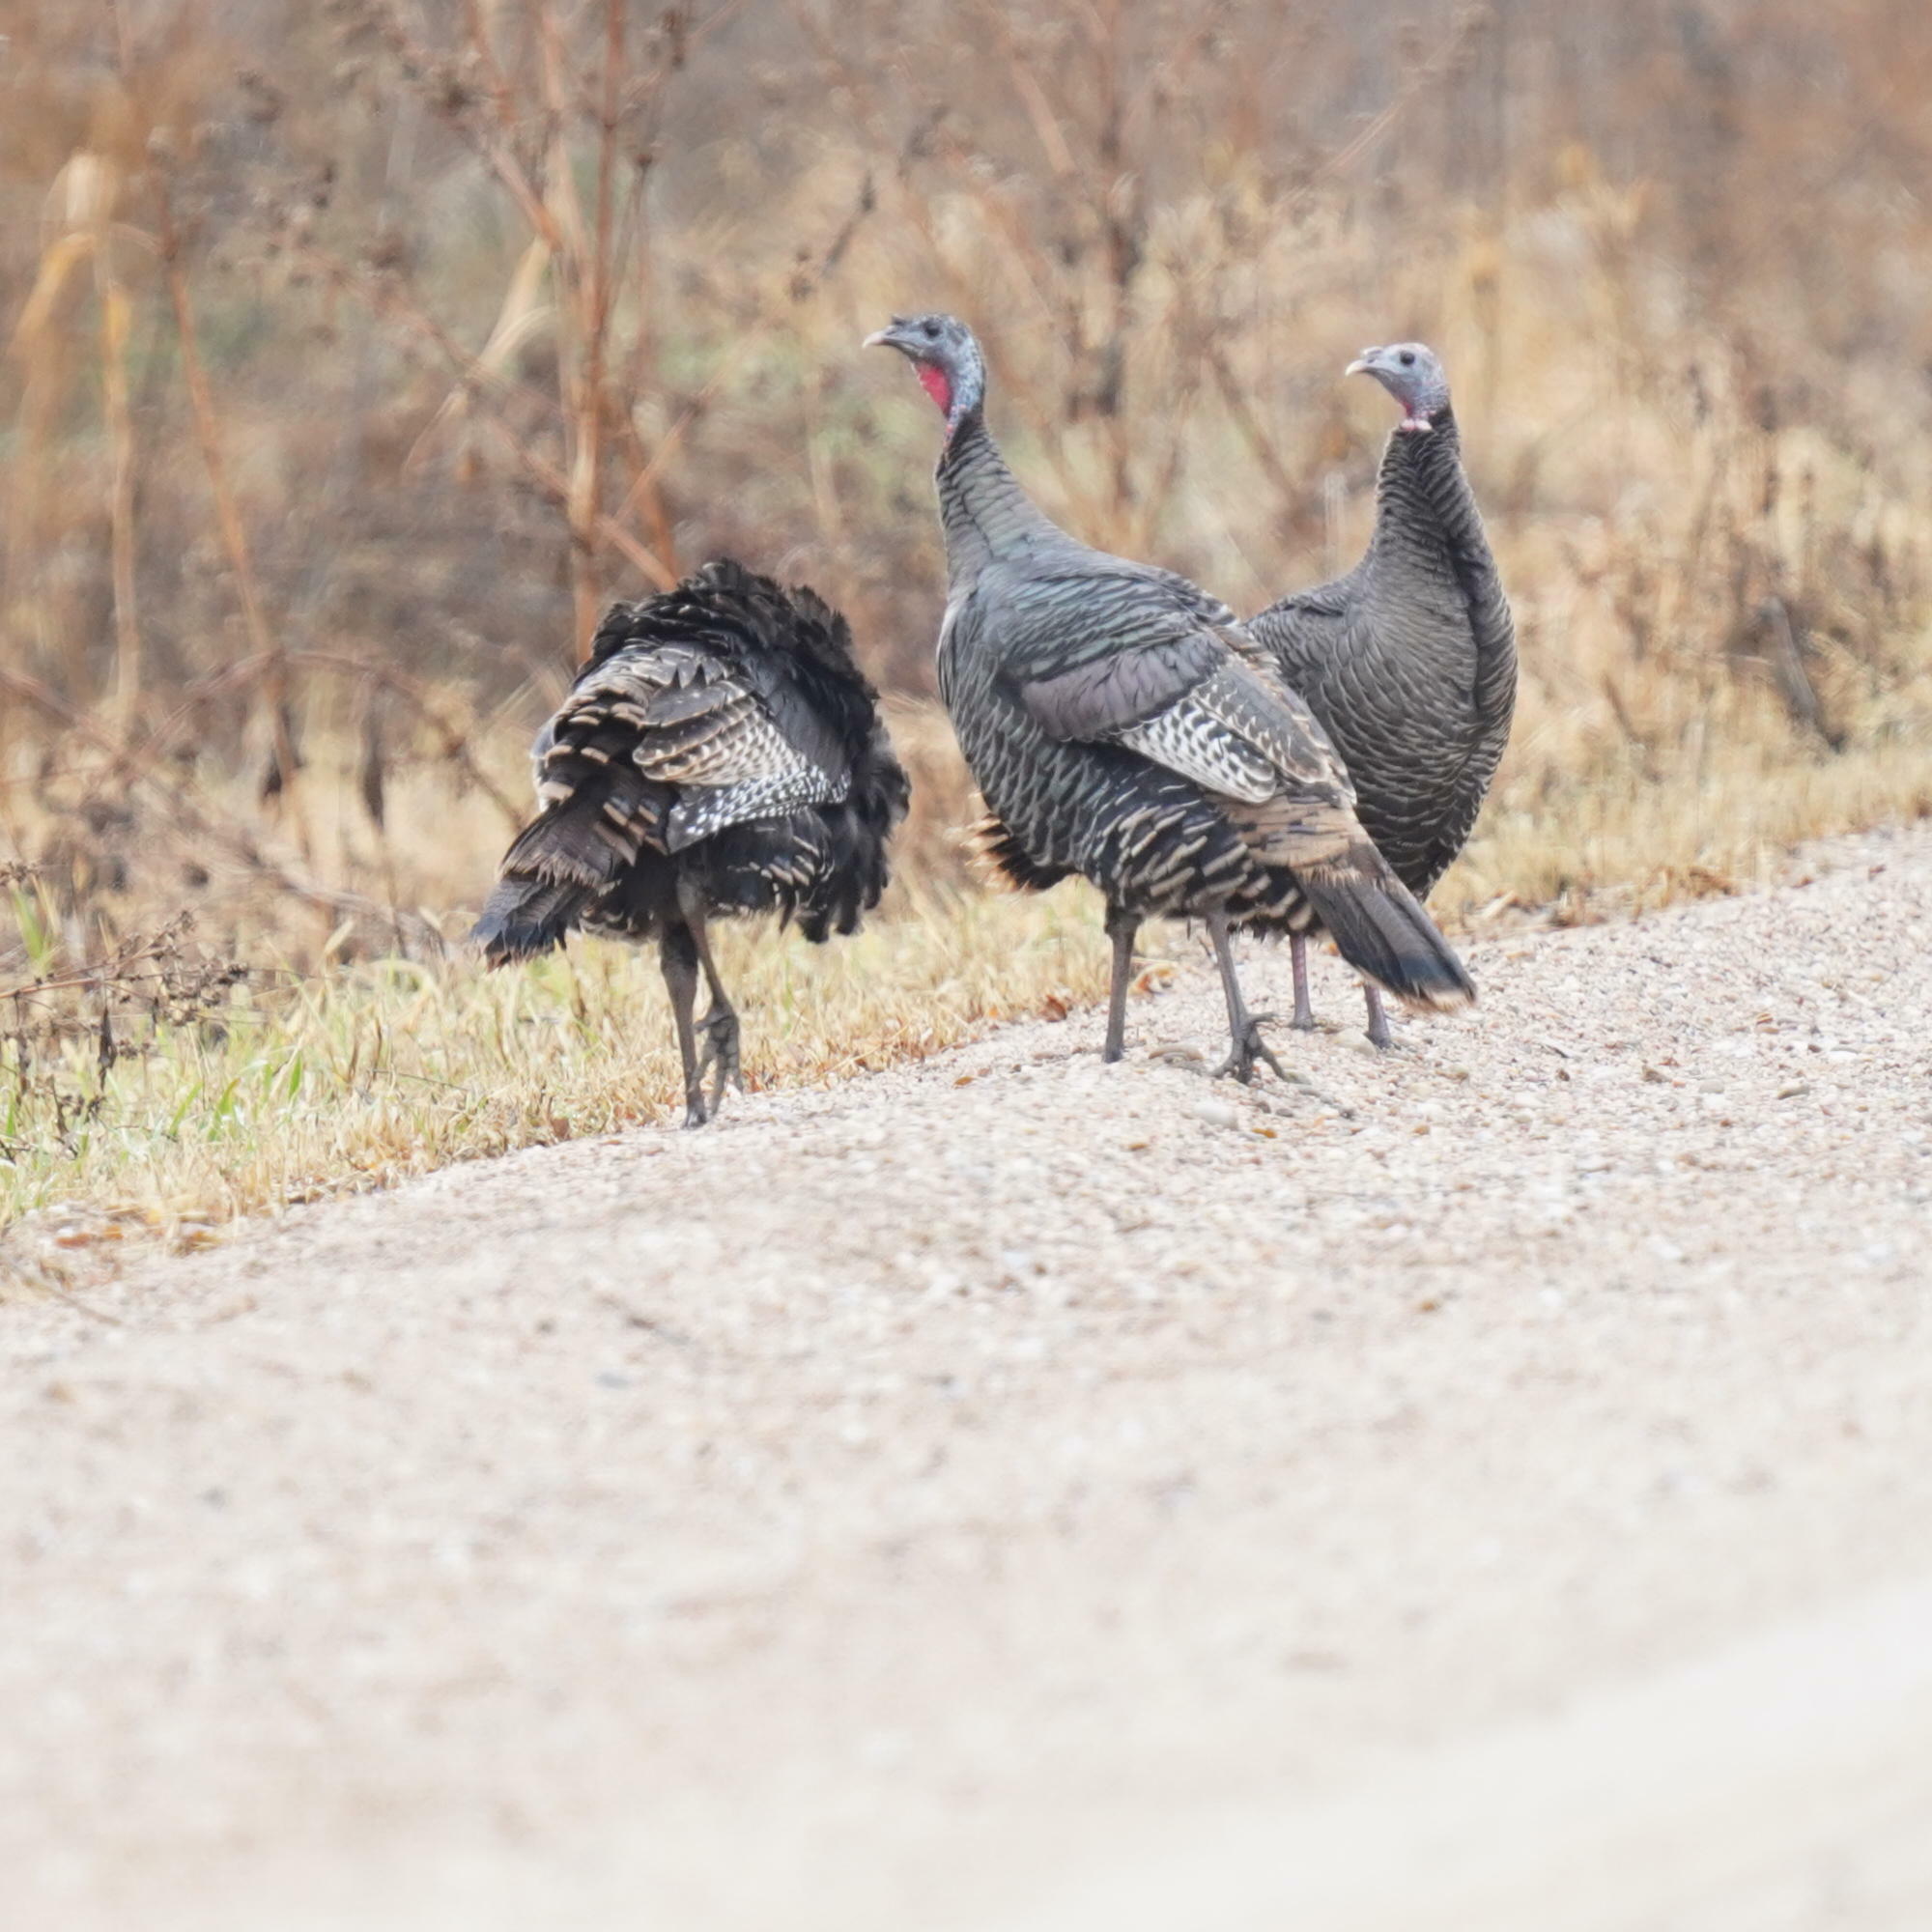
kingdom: Animalia
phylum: Chordata
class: Aves
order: Galliformes
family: Phasianidae
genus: Meleagris
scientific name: Meleagris gallopavo
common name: Wild turkey
